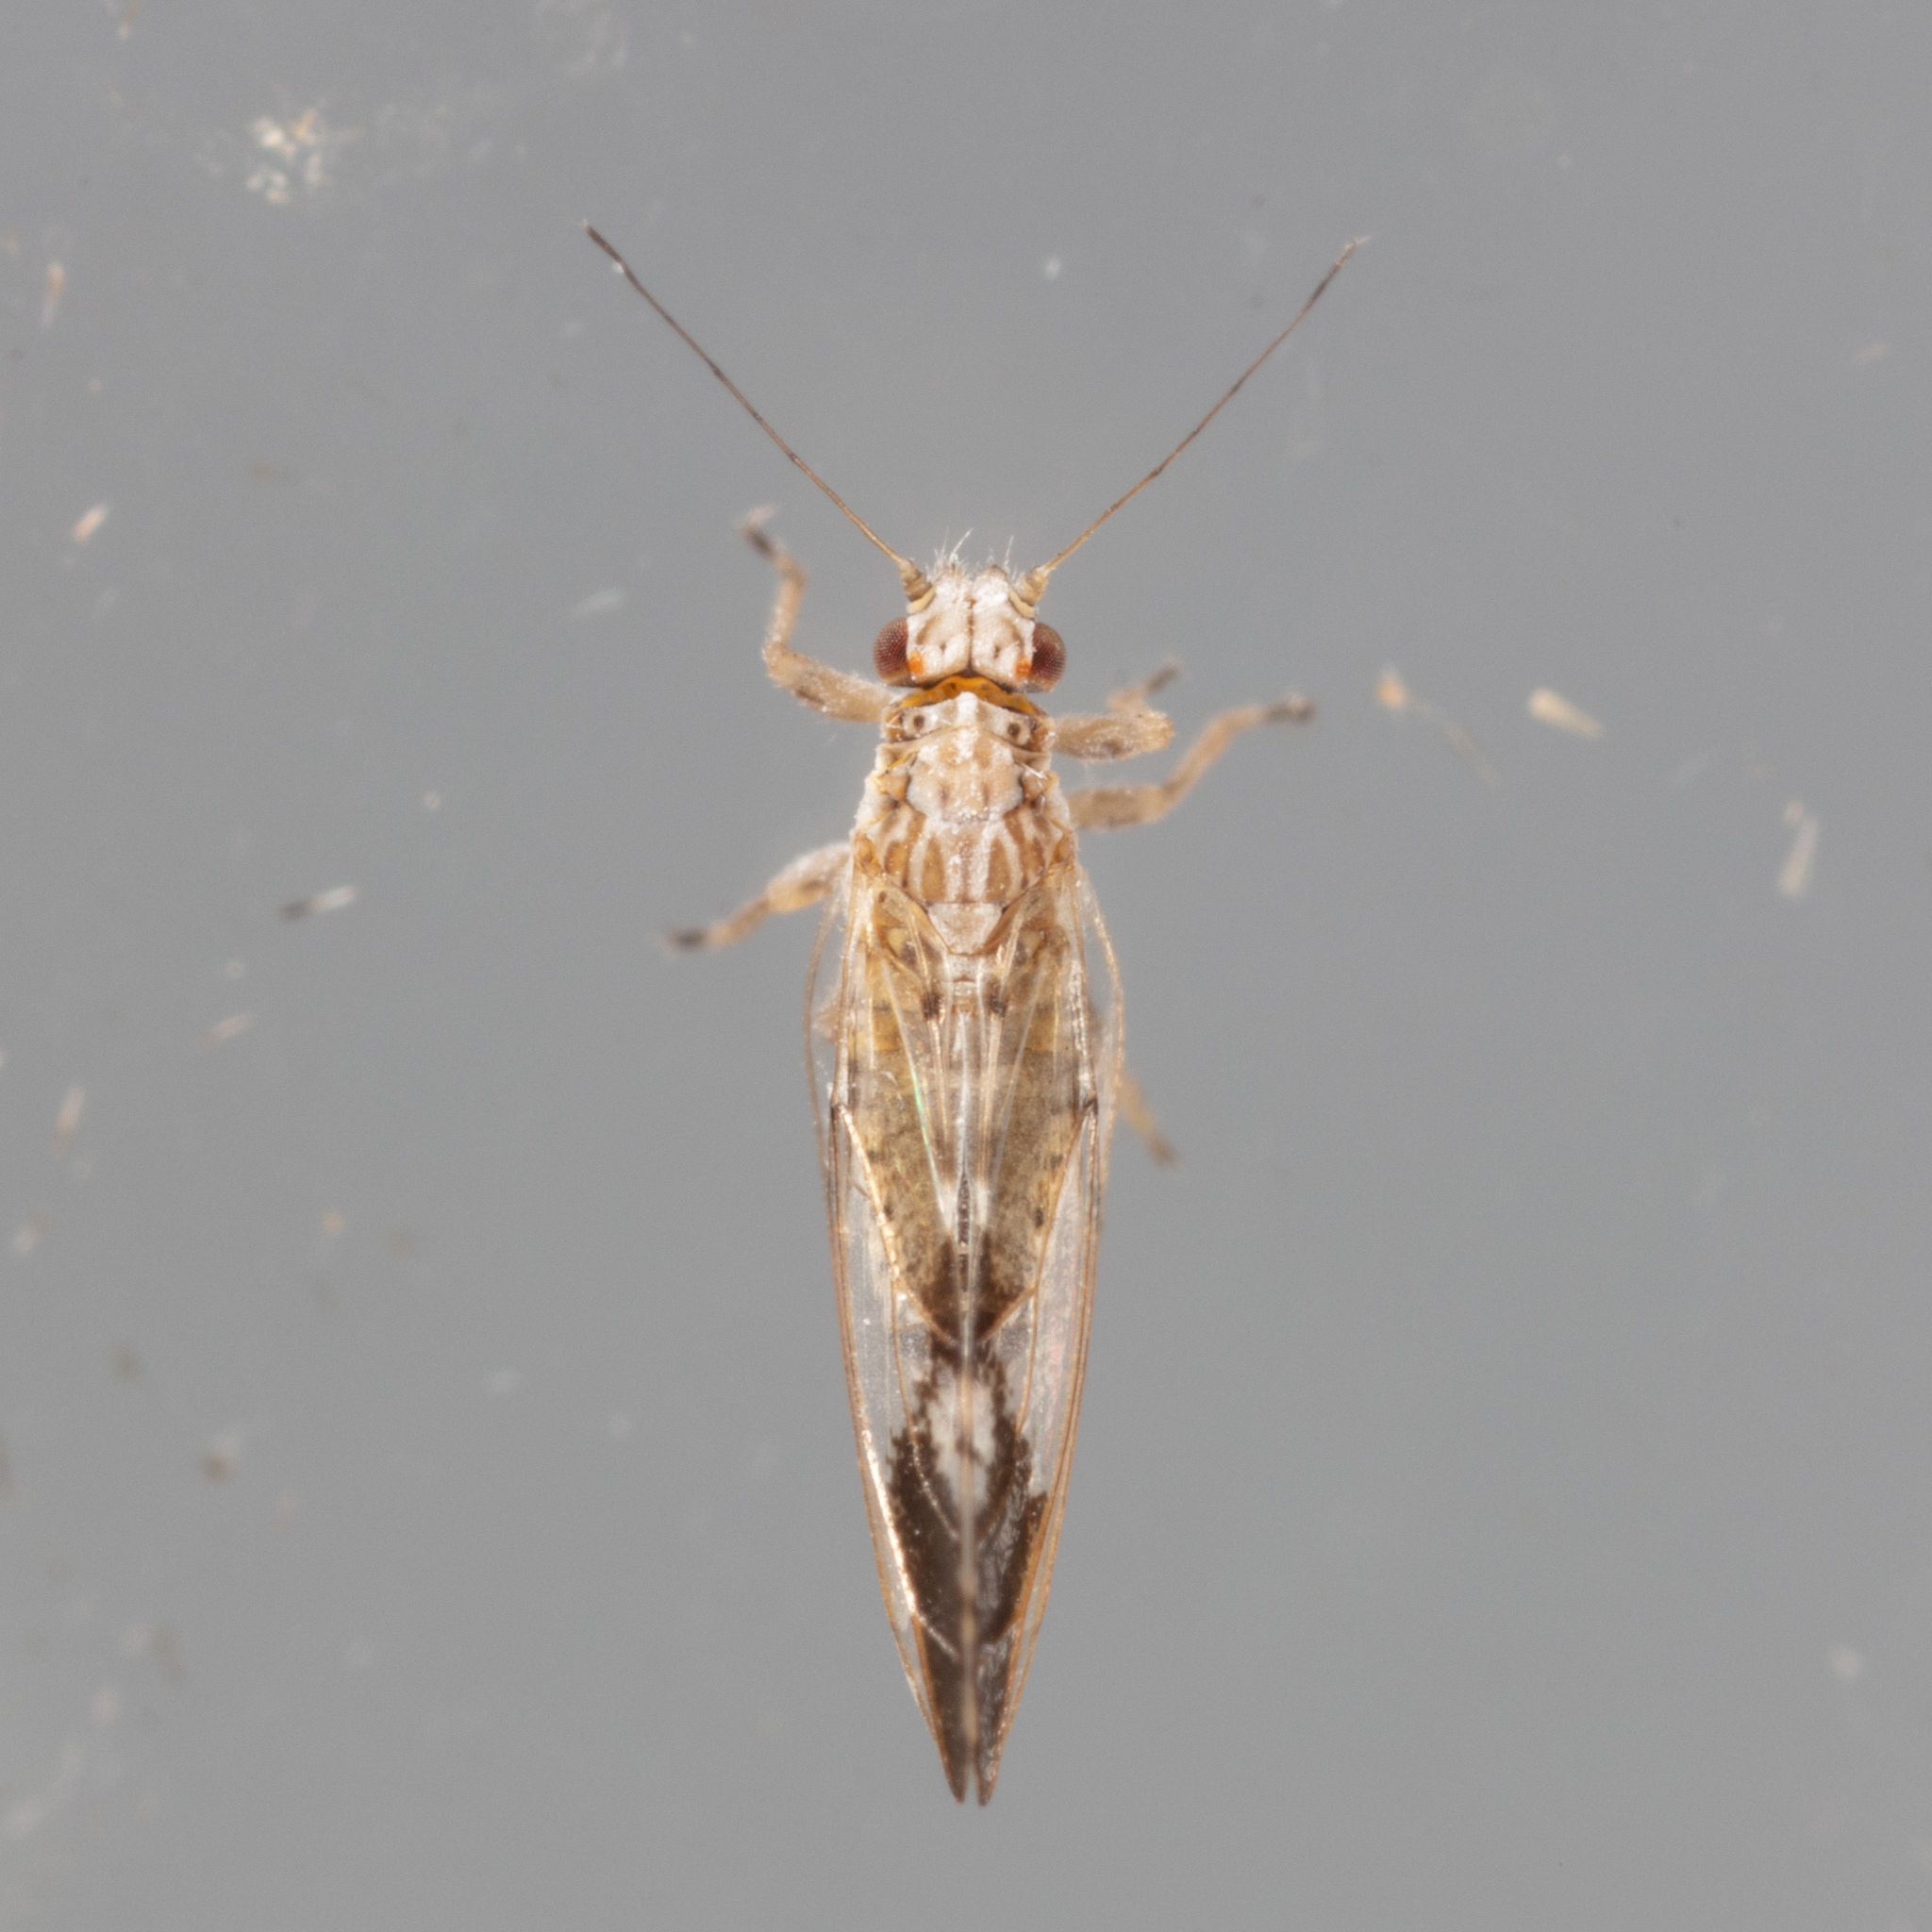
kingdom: Animalia
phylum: Arthropoda
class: Insecta
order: Hemiptera
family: Triozidae
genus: Leuronota
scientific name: Leuronota maculata
